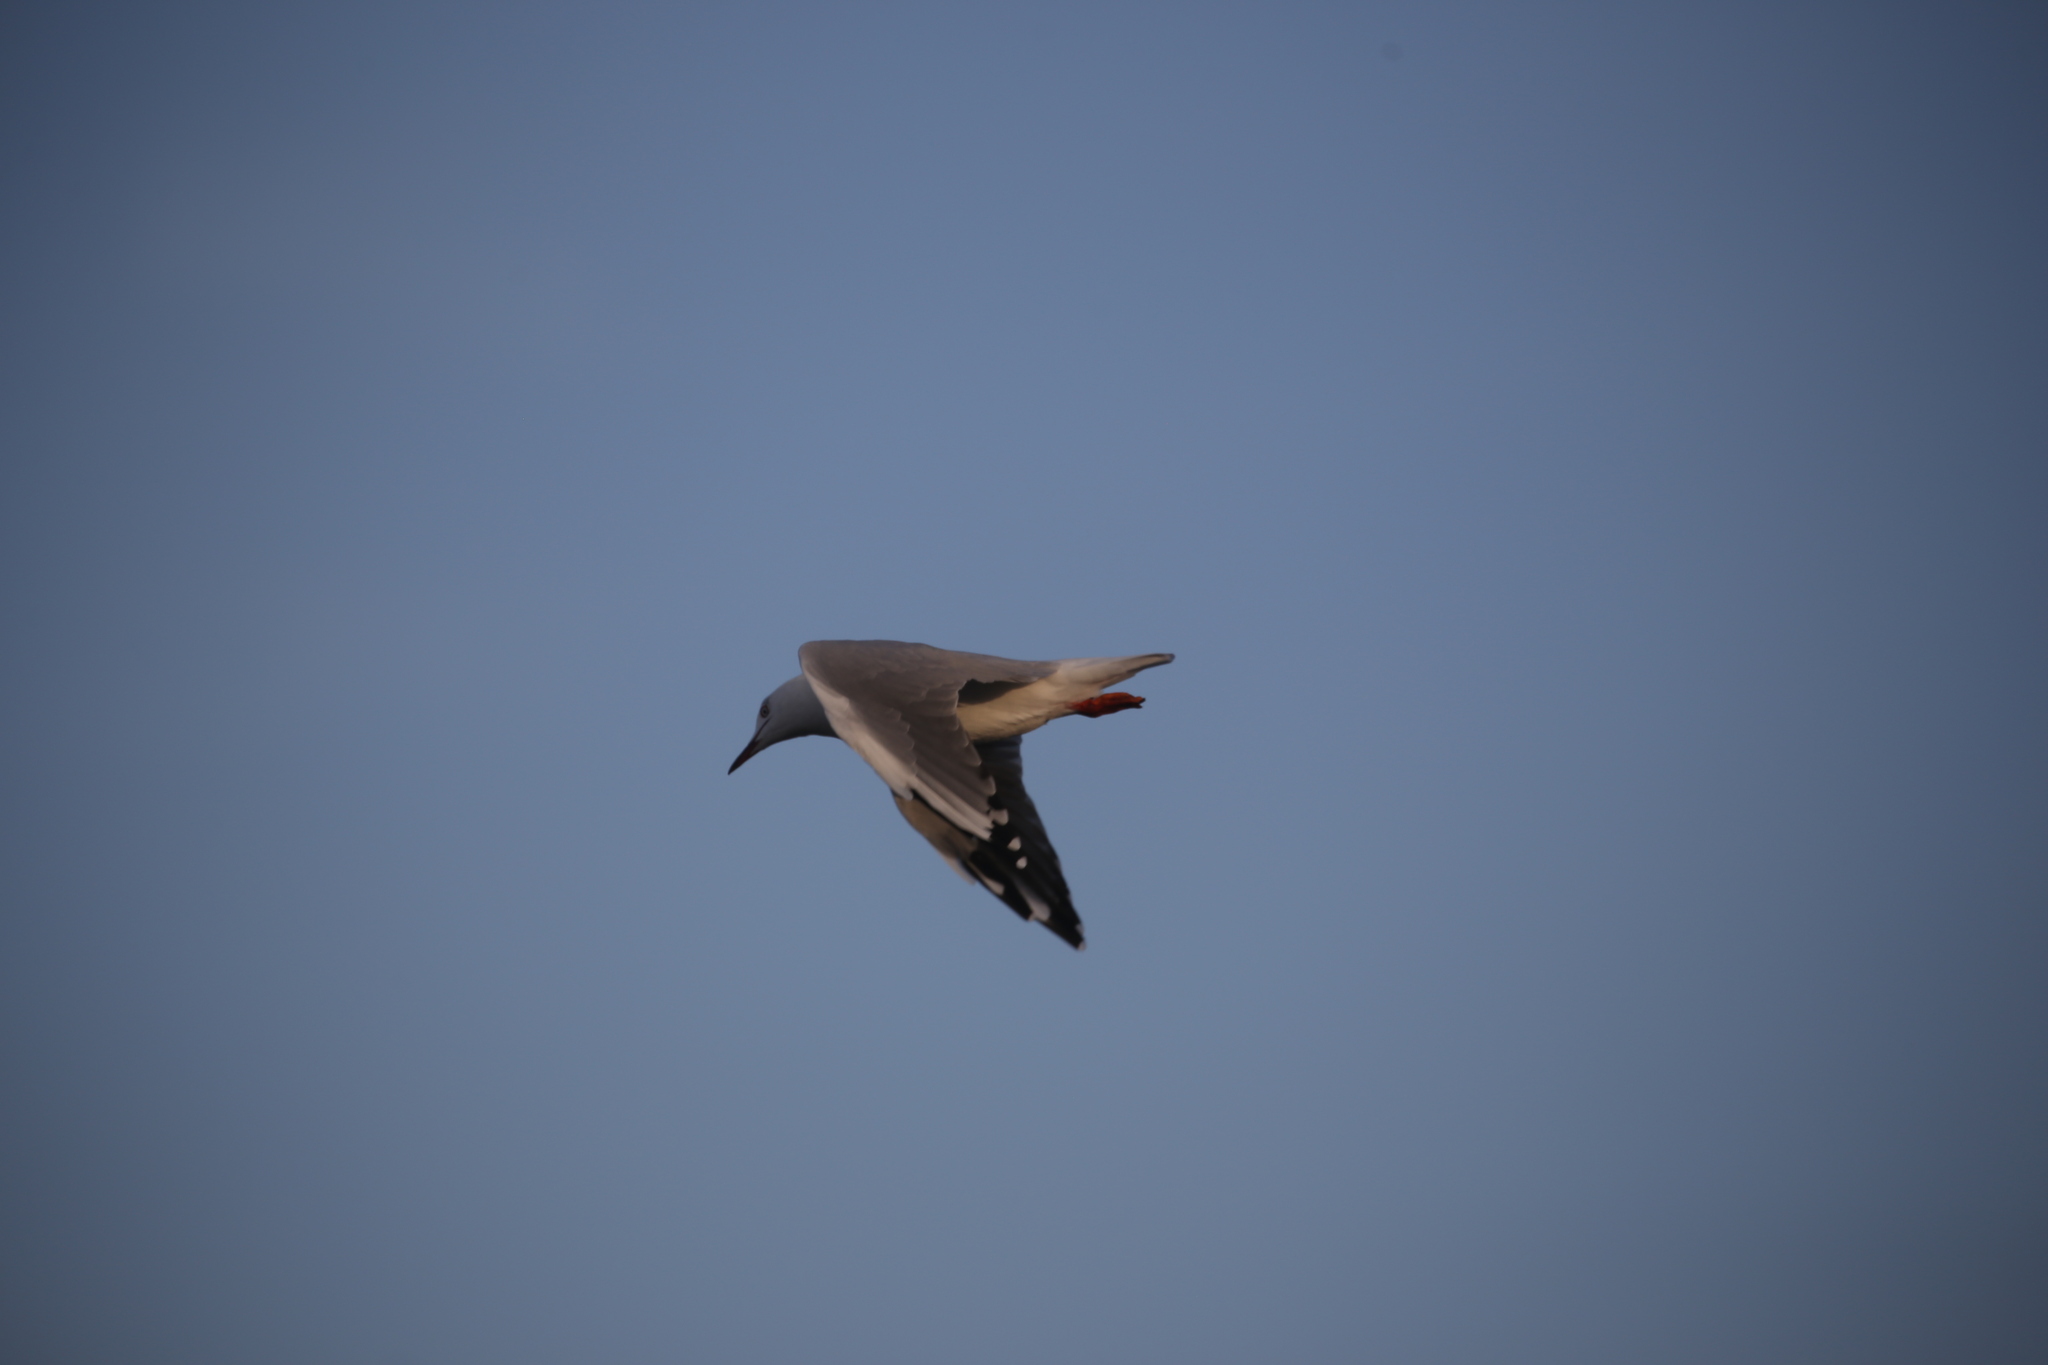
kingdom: Animalia
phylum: Chordata
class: Aves
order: Charadriiformes
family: Laridae
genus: Chroicocephalus
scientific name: Chroicocephalus novaehollandiae
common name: Silver gull
